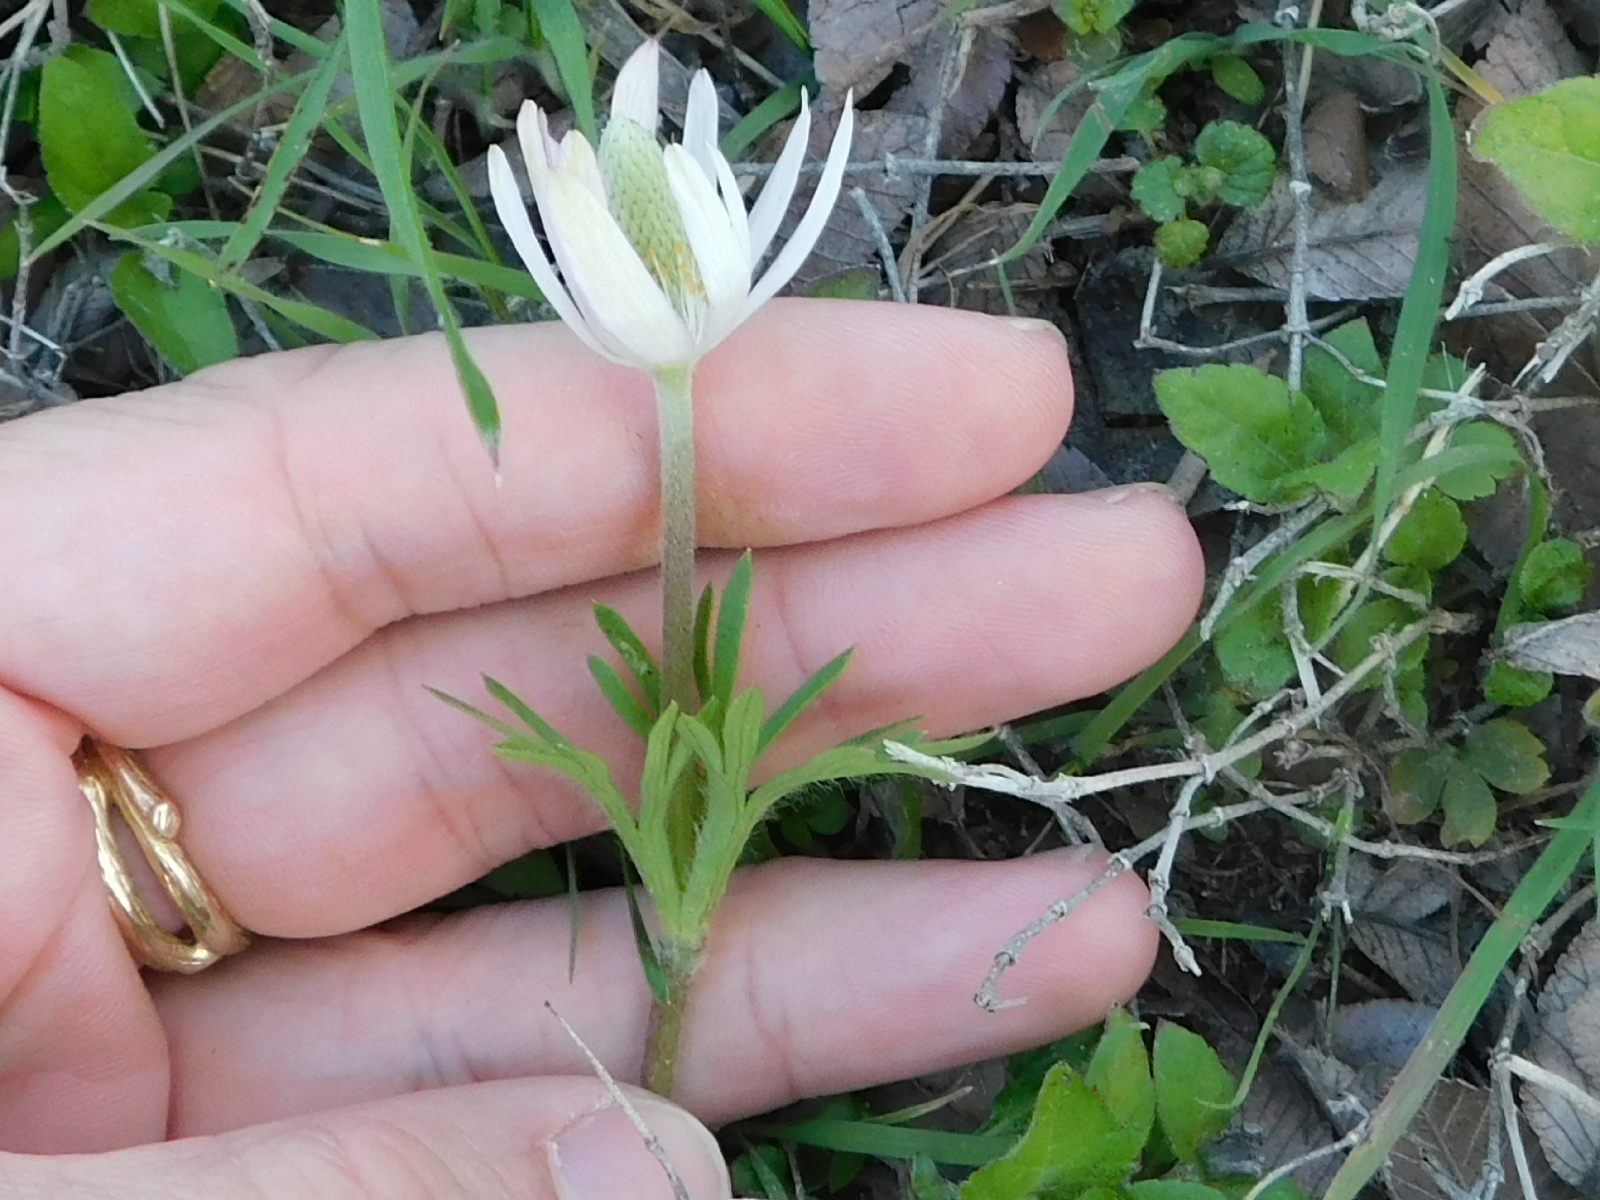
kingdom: Plantae
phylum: Tracheophyta
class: Magnoliopsida
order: Ranunculales
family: Ranunculaceae
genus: Anemone
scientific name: Anemone berlandieri
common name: Ten-petal anemone
